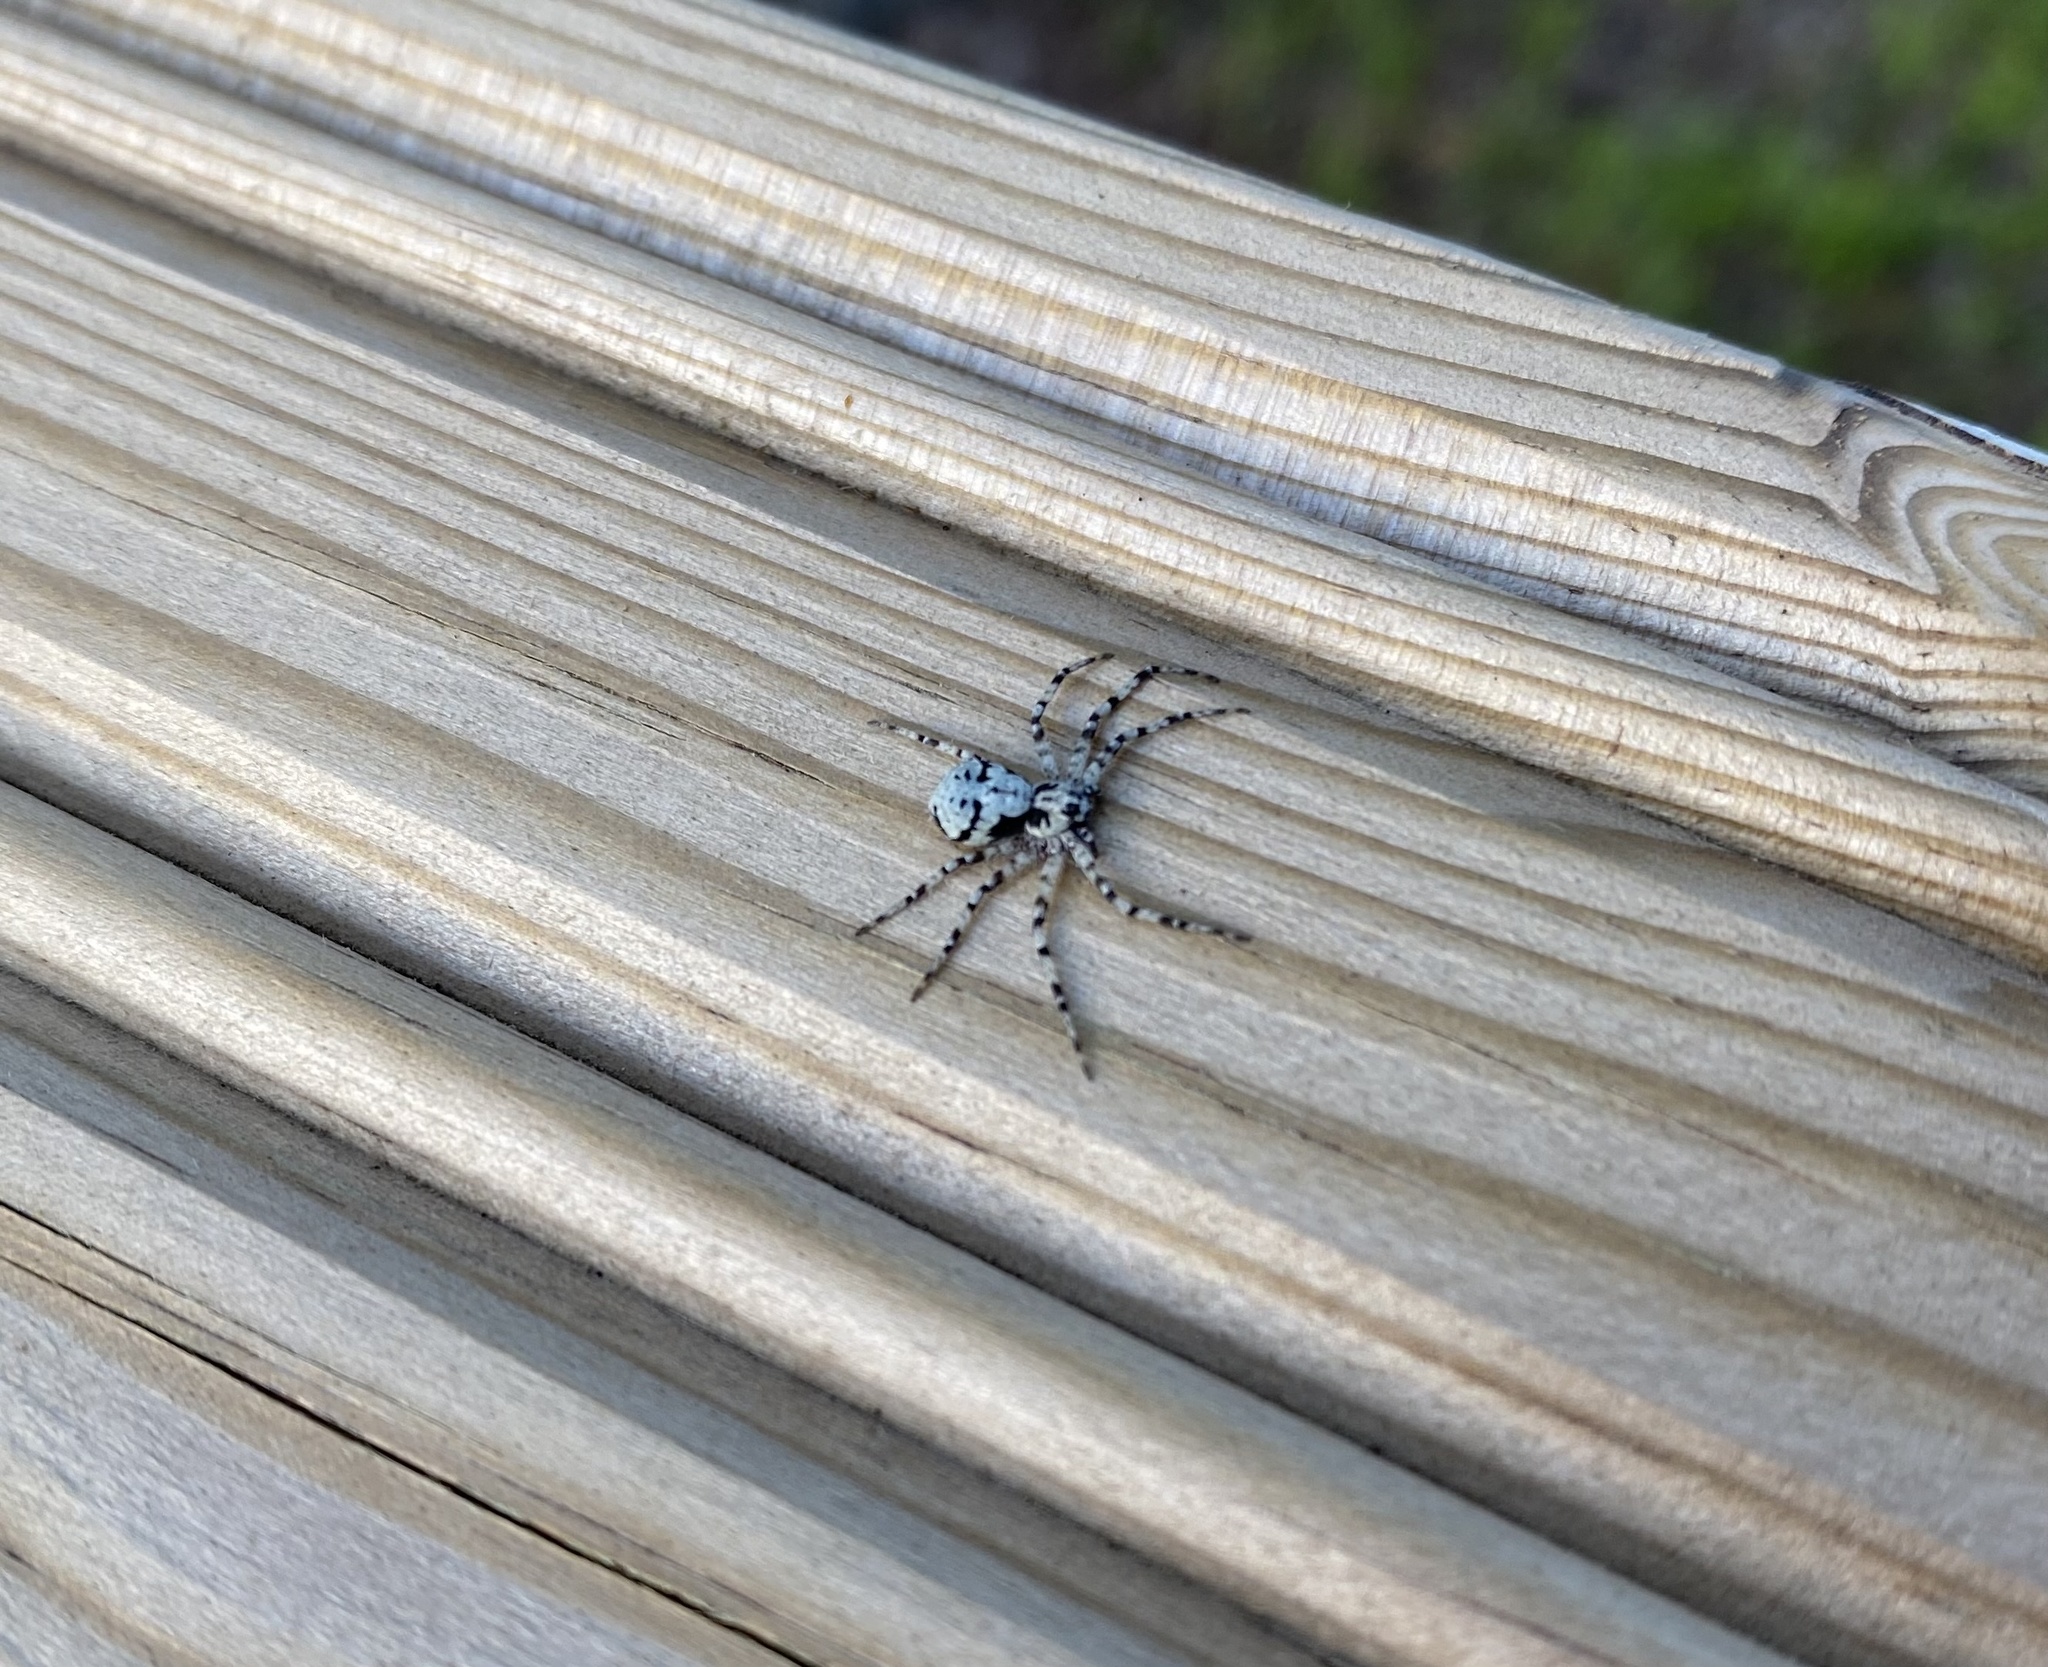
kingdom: Animalia
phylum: Arthropoda
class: Arachnida
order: Araneae
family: Philodromidae
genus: Philodromus
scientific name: Philodromus margaritatus
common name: Lichen running-spider
